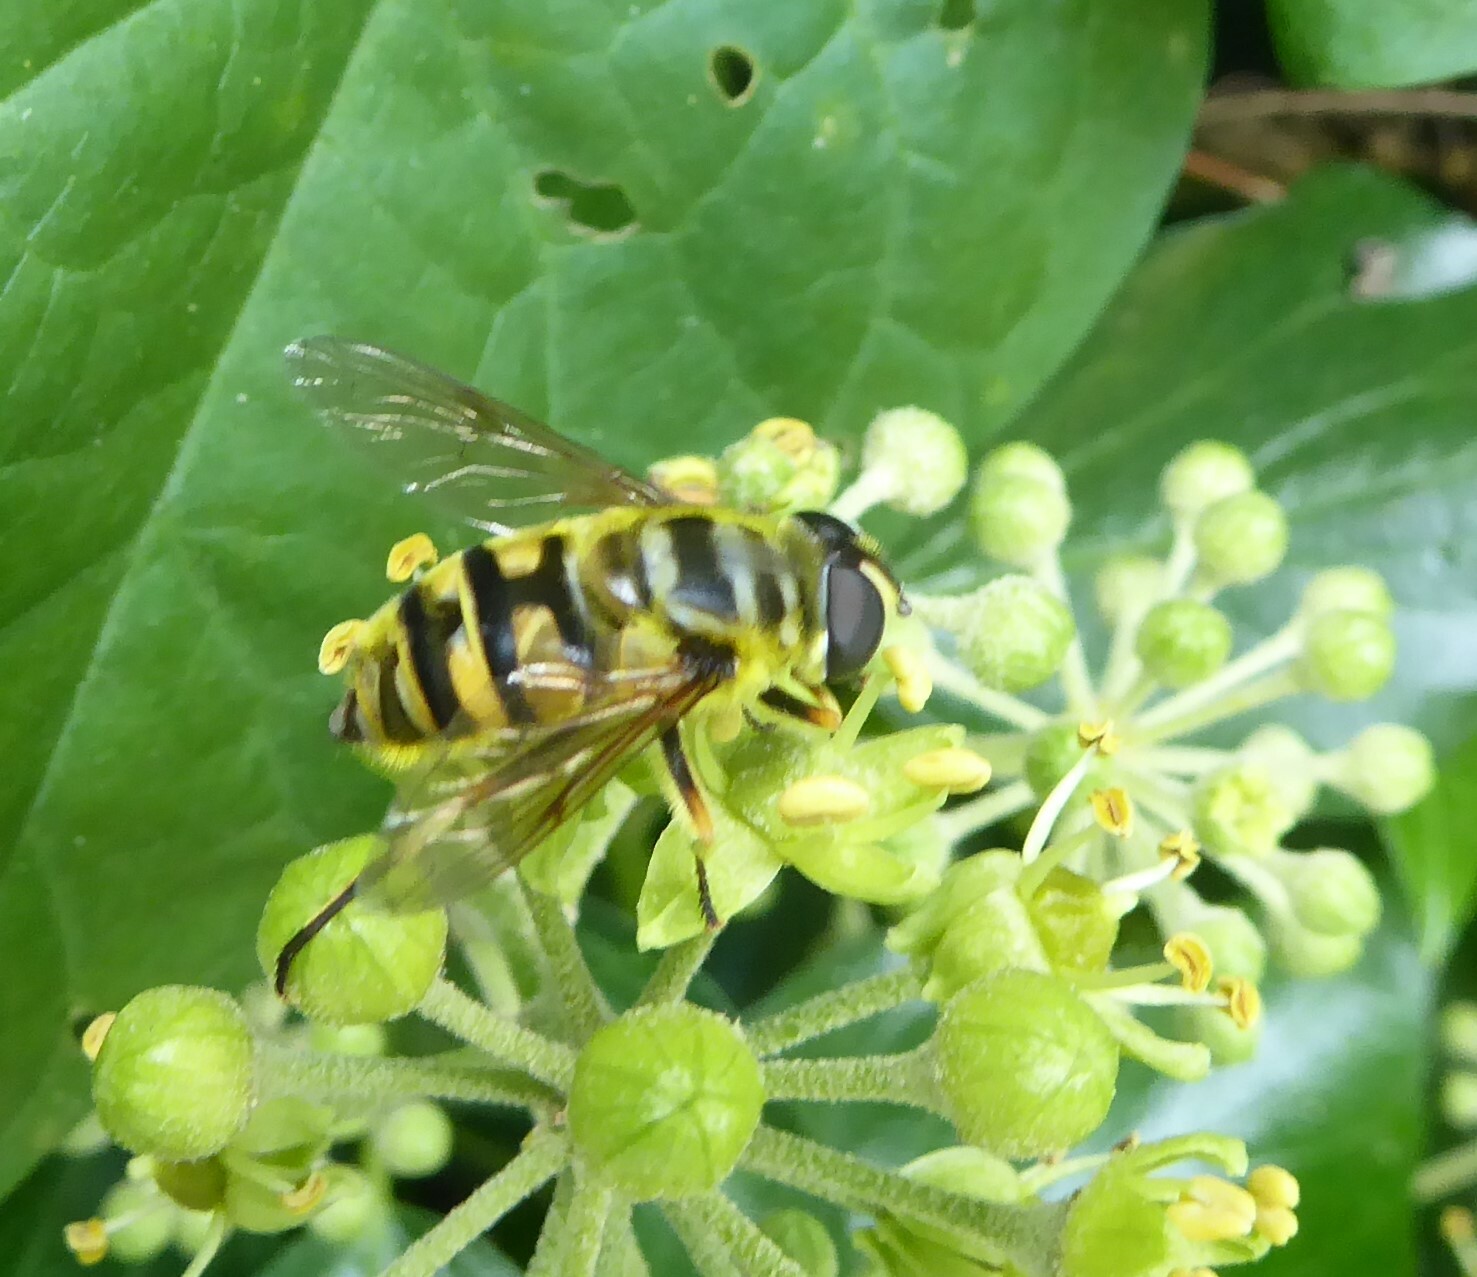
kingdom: Animalia
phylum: Arthropoda
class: Insecta
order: Diptera
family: Syrphidae
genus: Myathropa
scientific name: Myathropa florea
